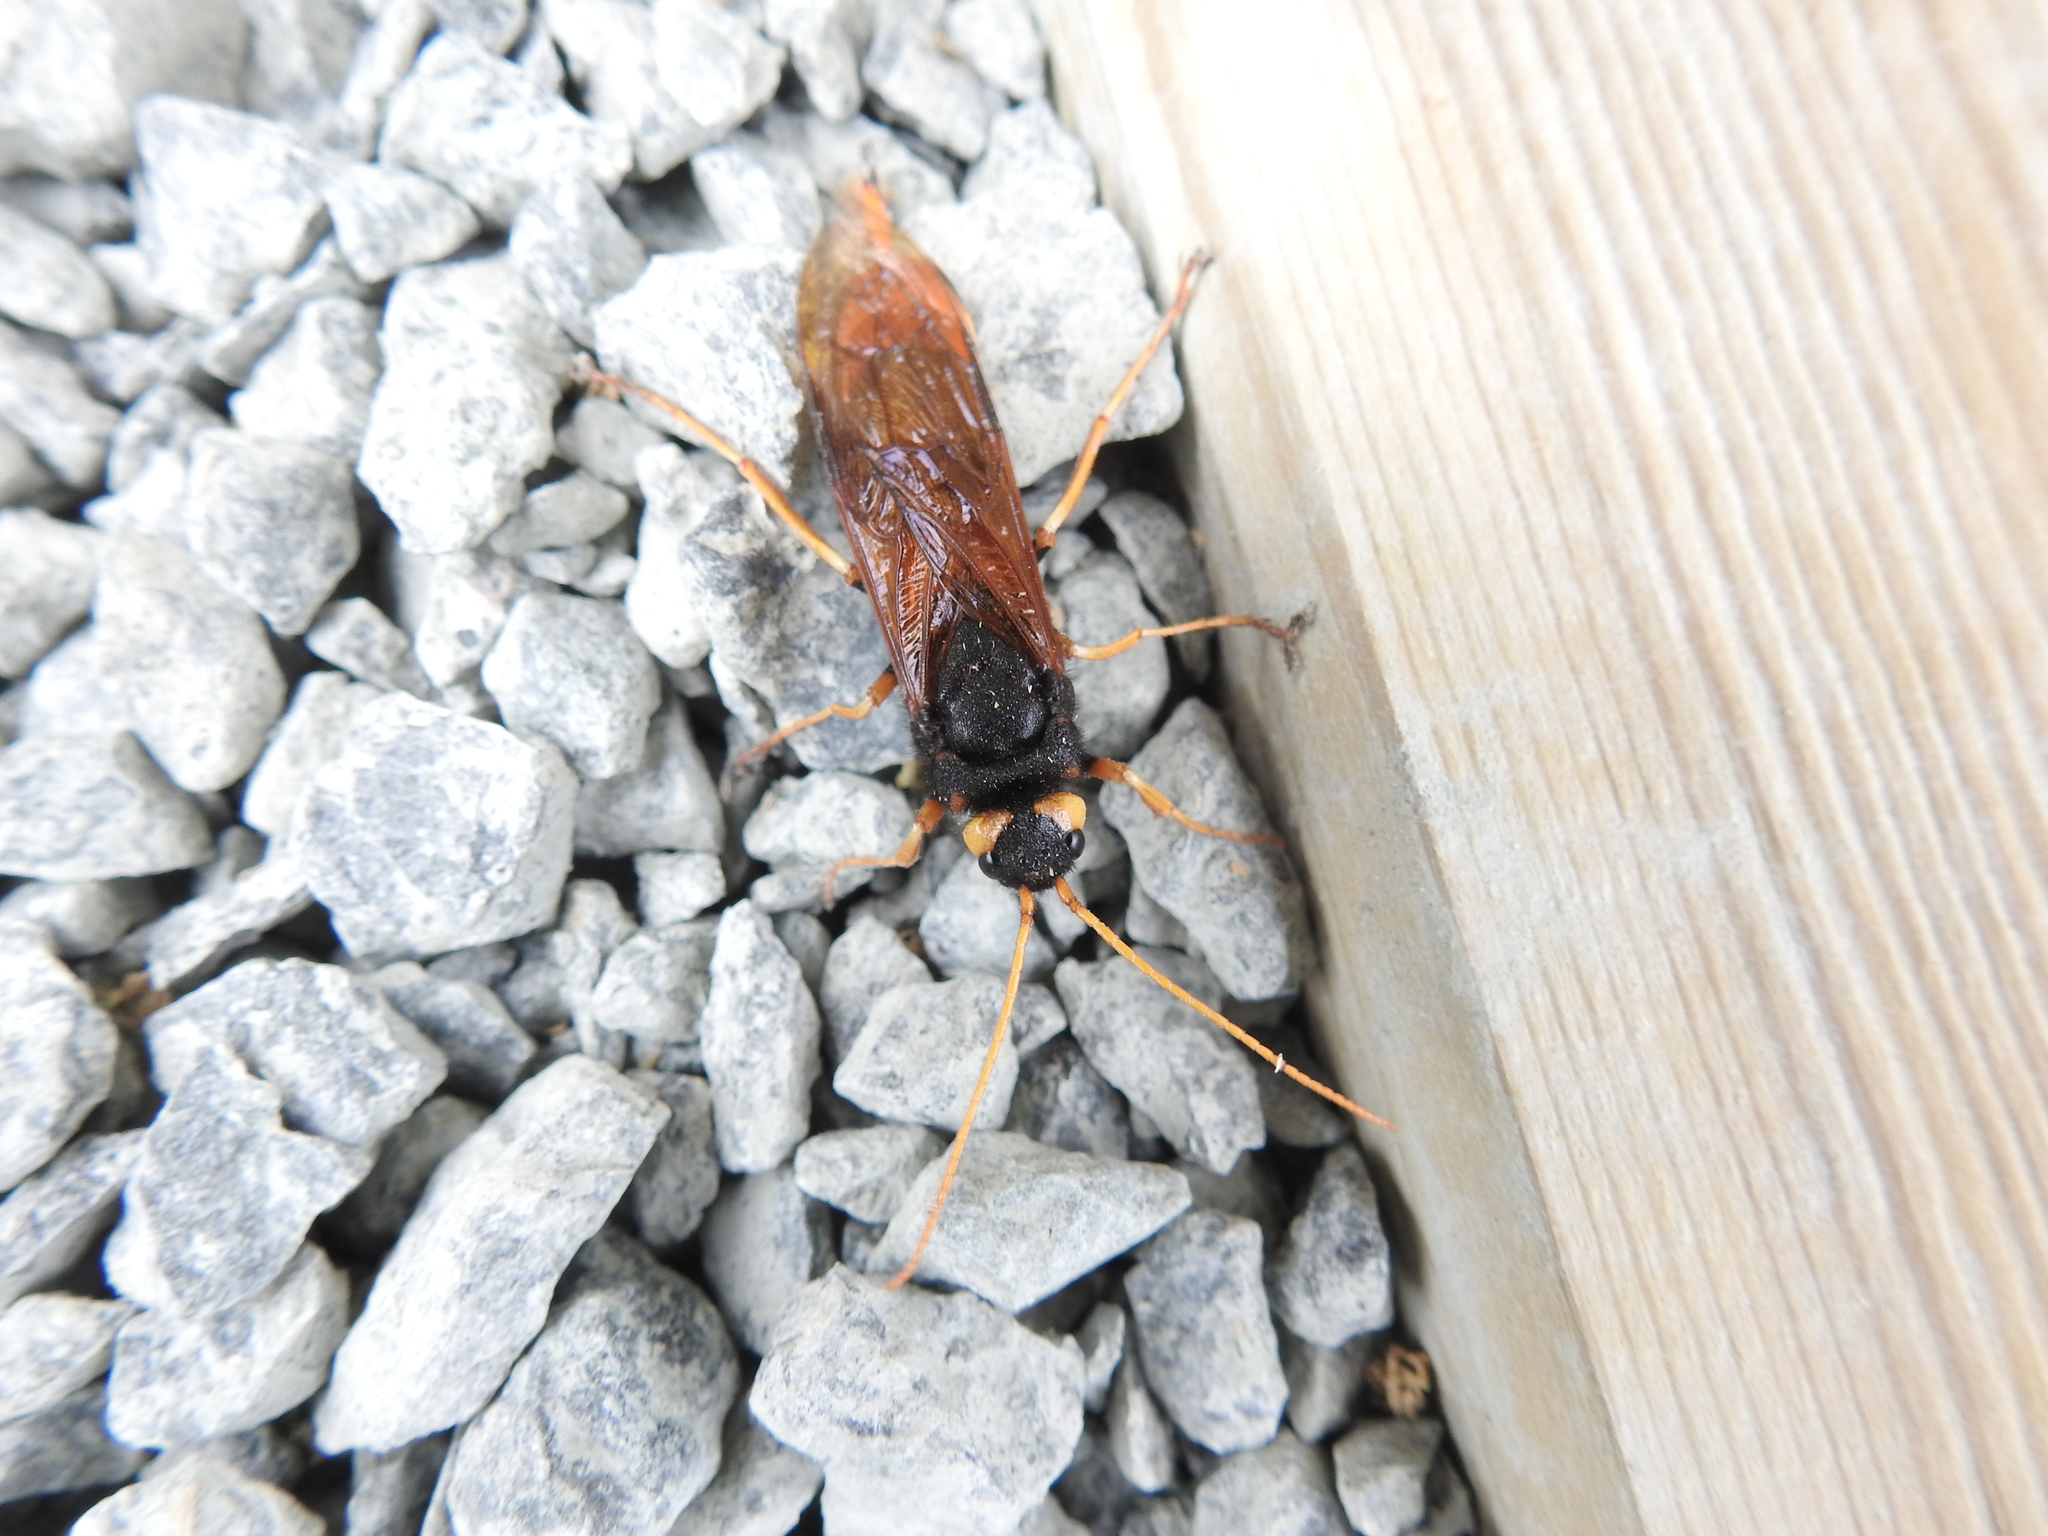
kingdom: Animalia
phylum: Arthropoda
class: Insecta
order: Hymenoptera
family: Siricidae
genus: Urocerus
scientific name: Urocerus gigas
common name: Giant woodwasp
